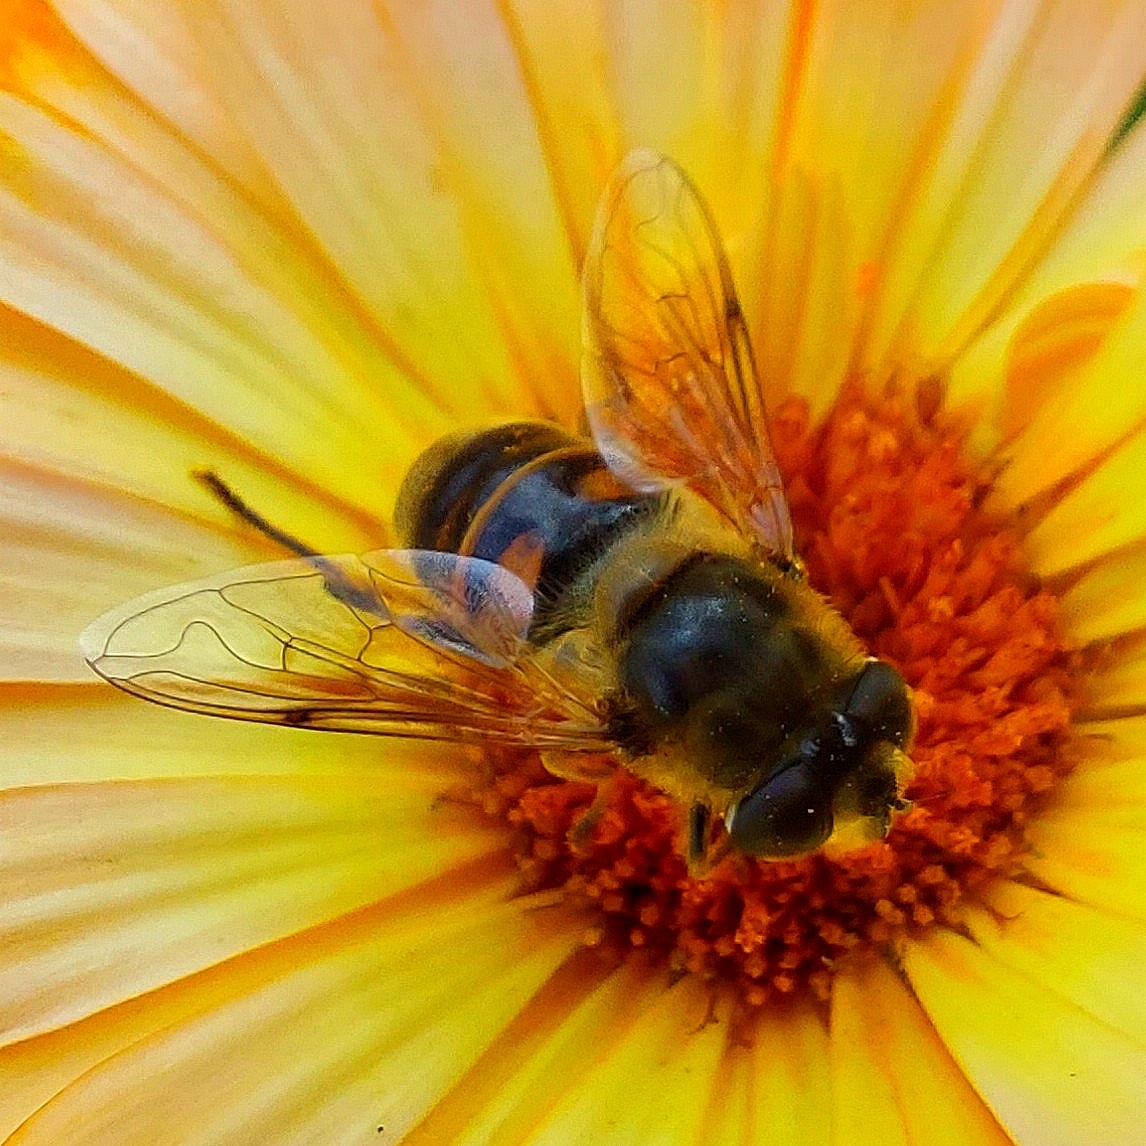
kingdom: Animalia
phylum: Arthropoda
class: Insecta
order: Diptera
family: Syrphidae
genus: Eristalis
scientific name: Eristalis tenax
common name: Drone fly
